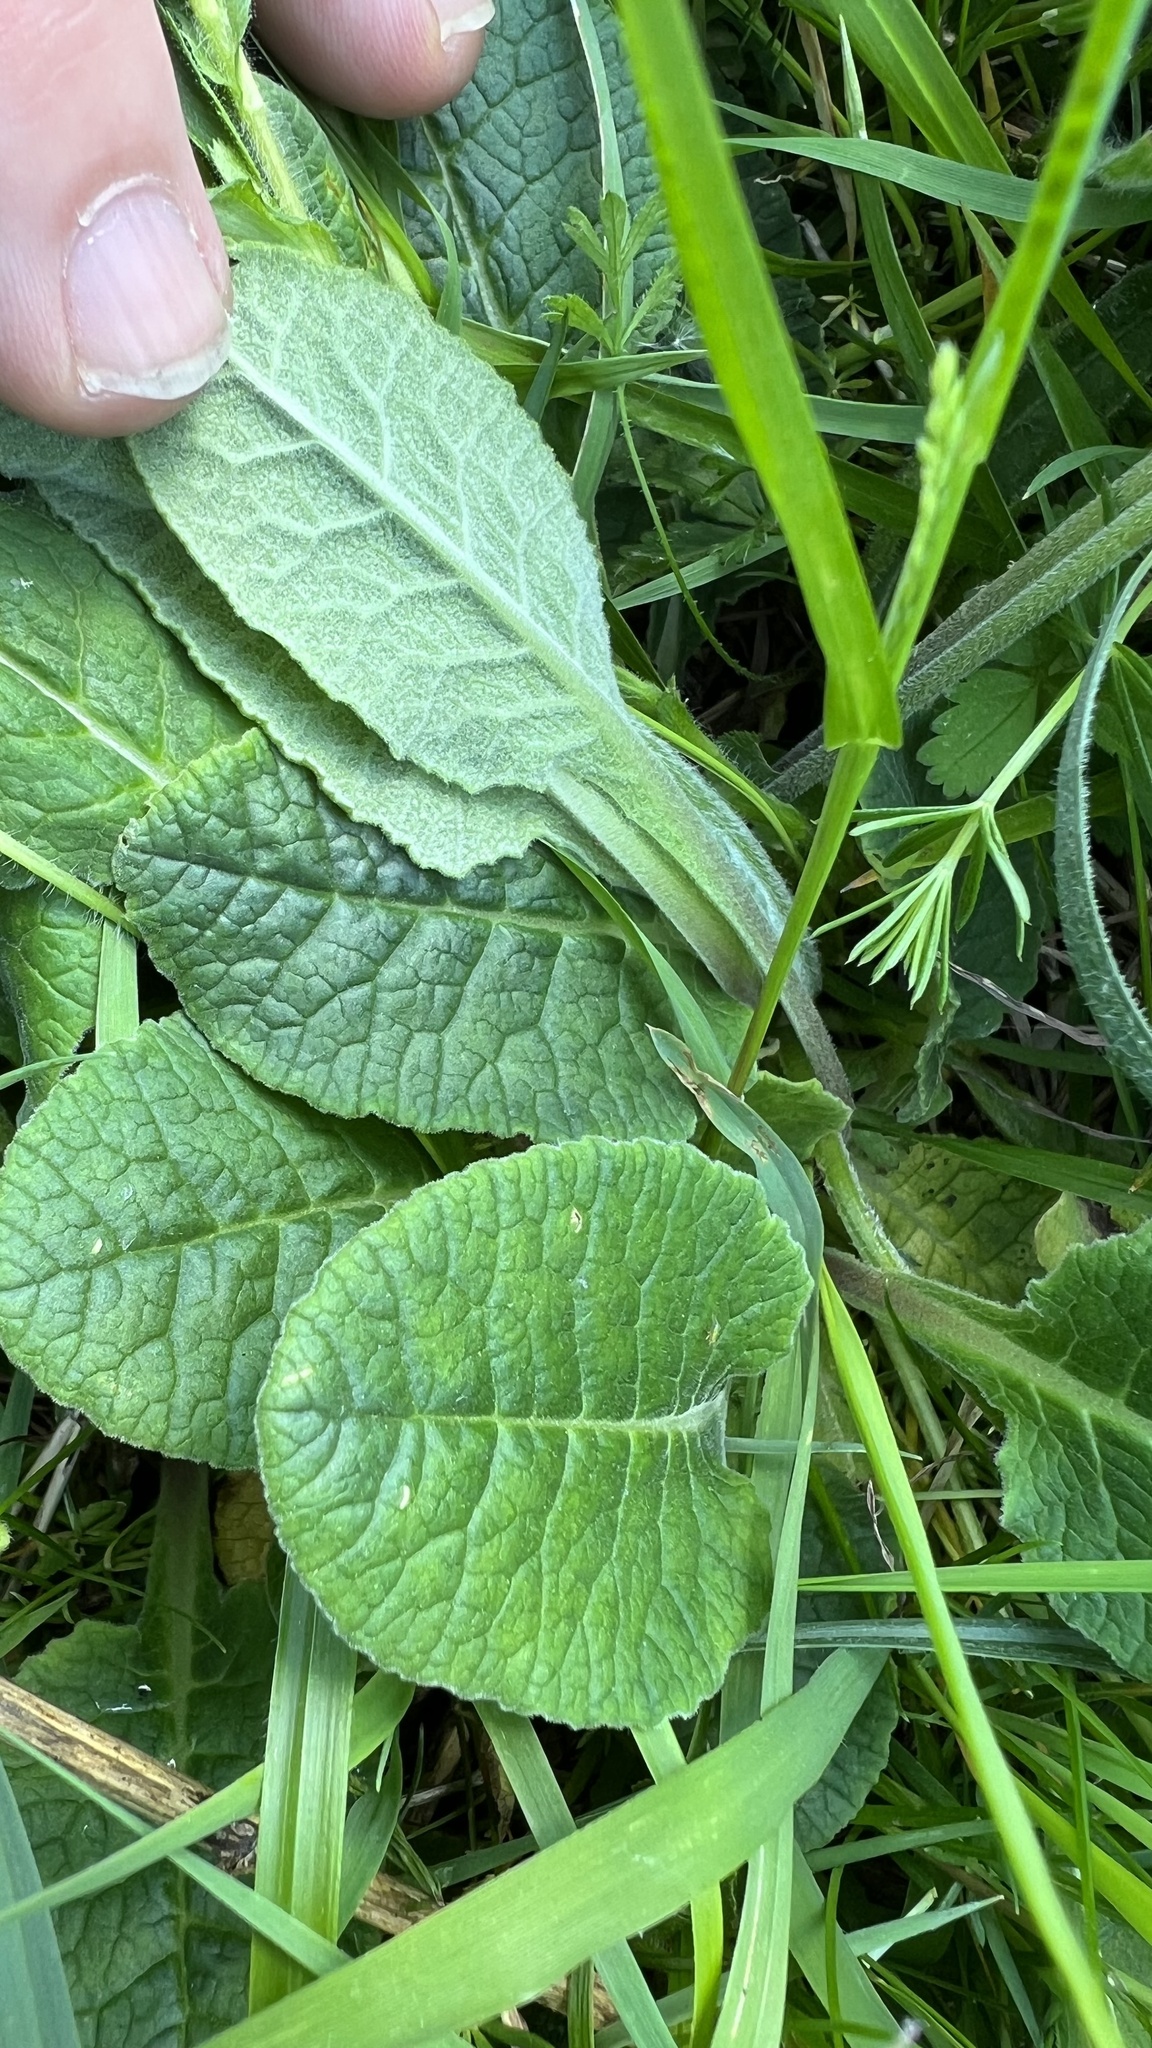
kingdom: Plantae
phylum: Tracheophyta
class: Magnoliopsida
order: Ericales
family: Primulaceae
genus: Primula
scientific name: Primula veris
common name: Cowslip
